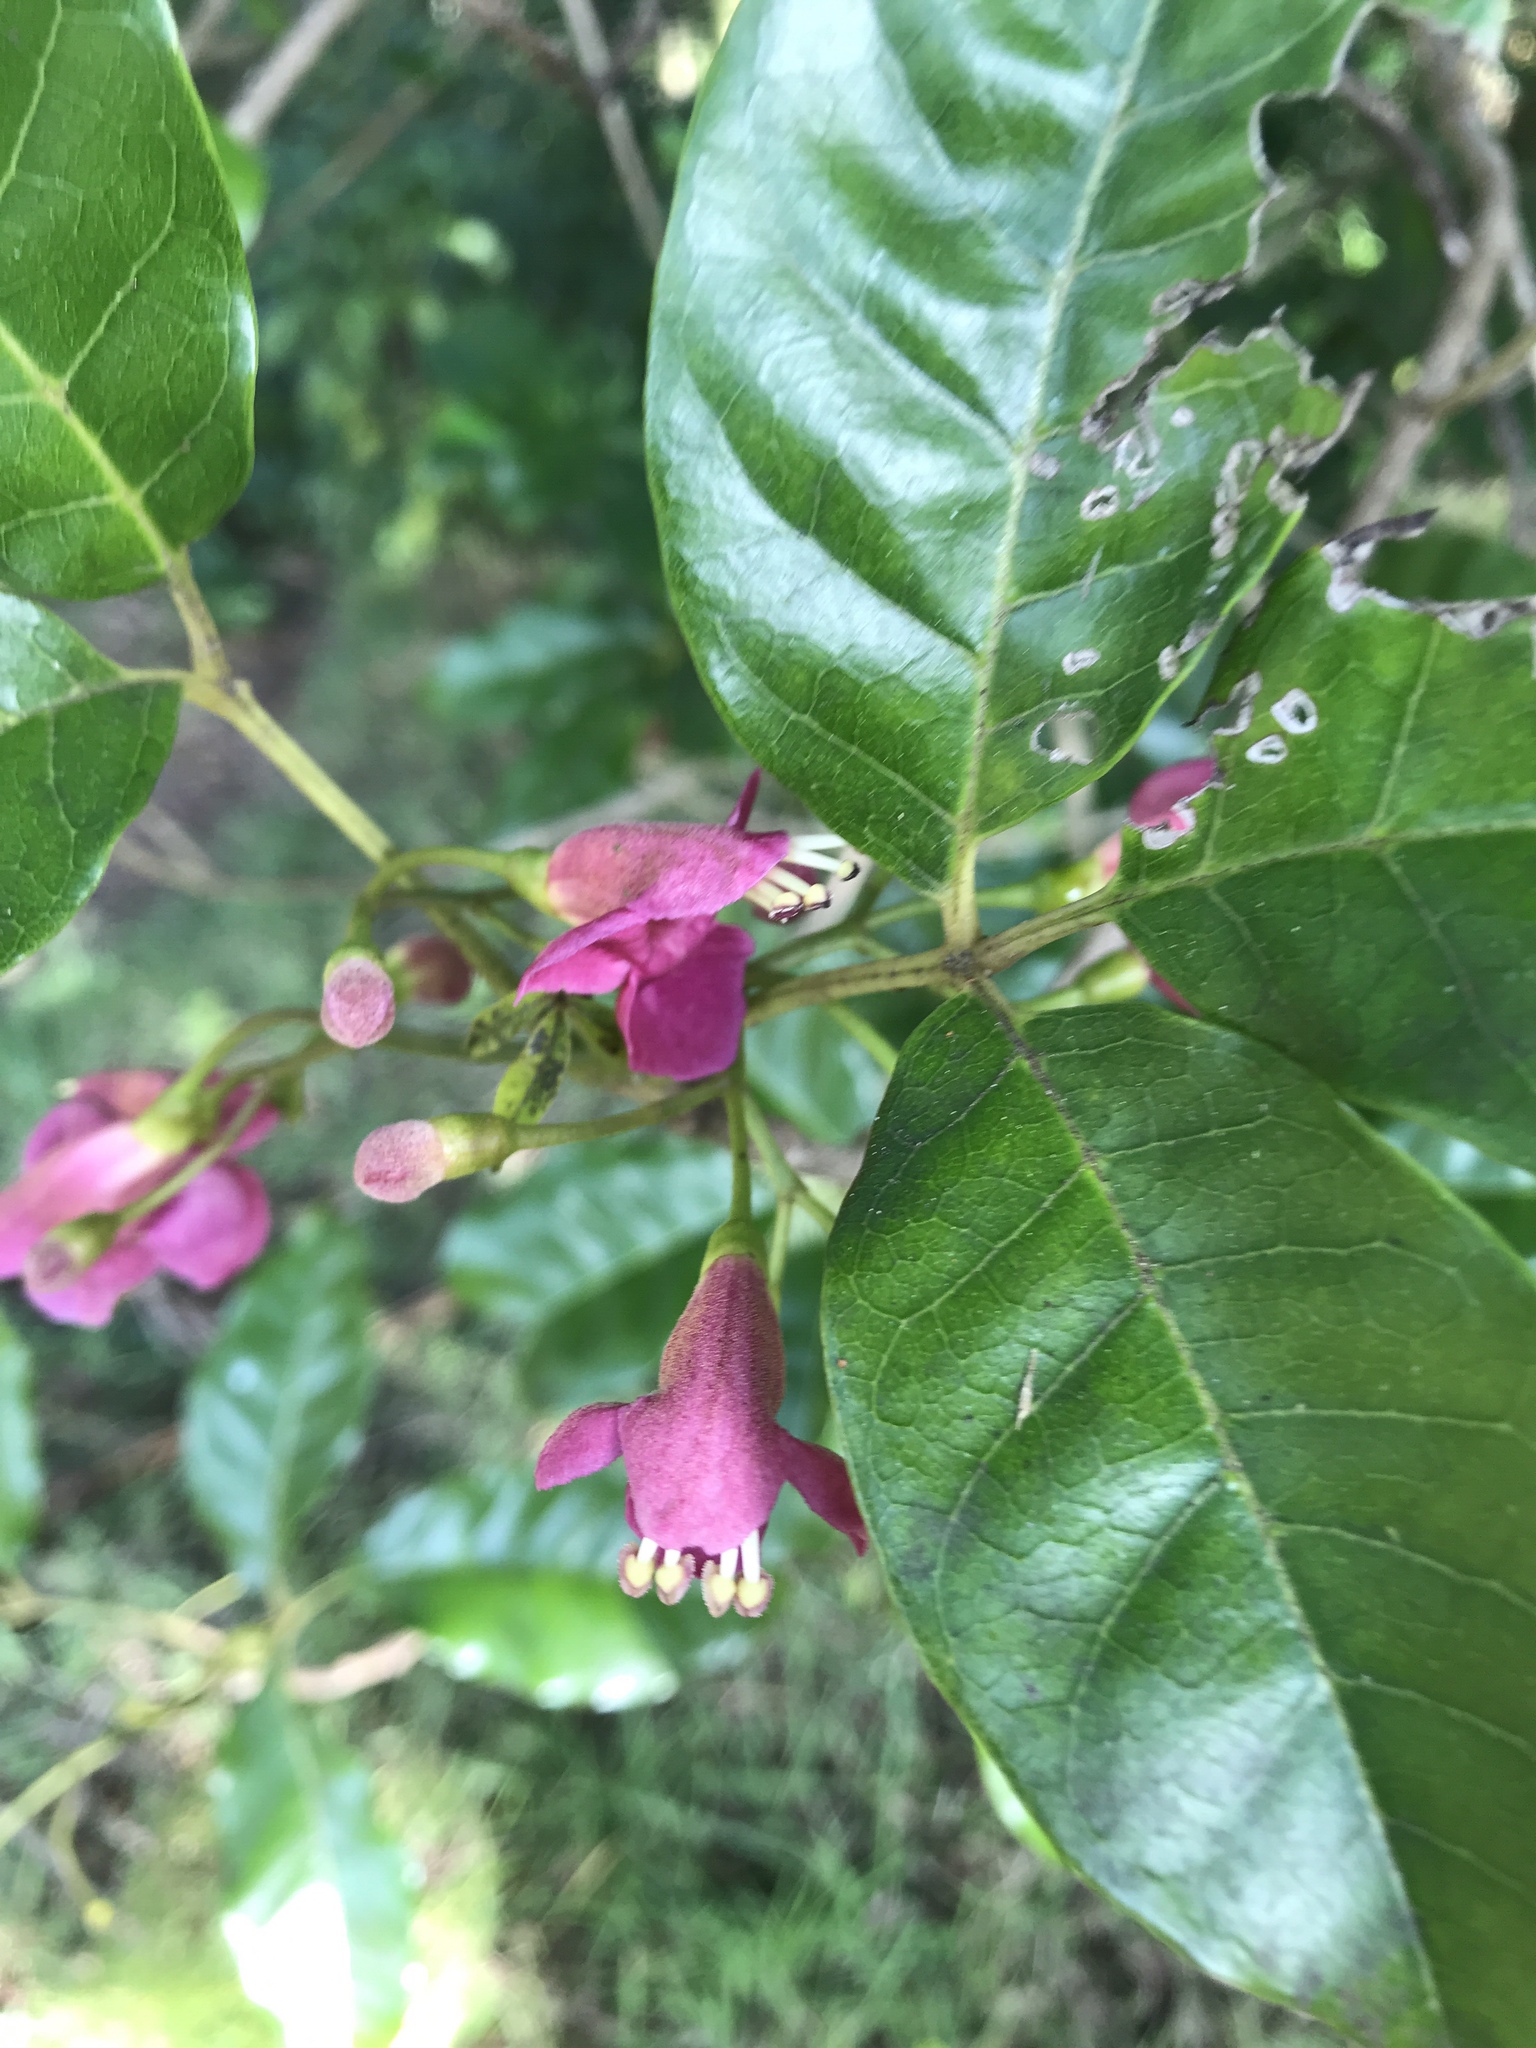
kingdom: Plantae
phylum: Tracheophyta
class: Magnoliopsida
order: Lamiales
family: Lamiaceae
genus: Vitex
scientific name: Vitex lucens
